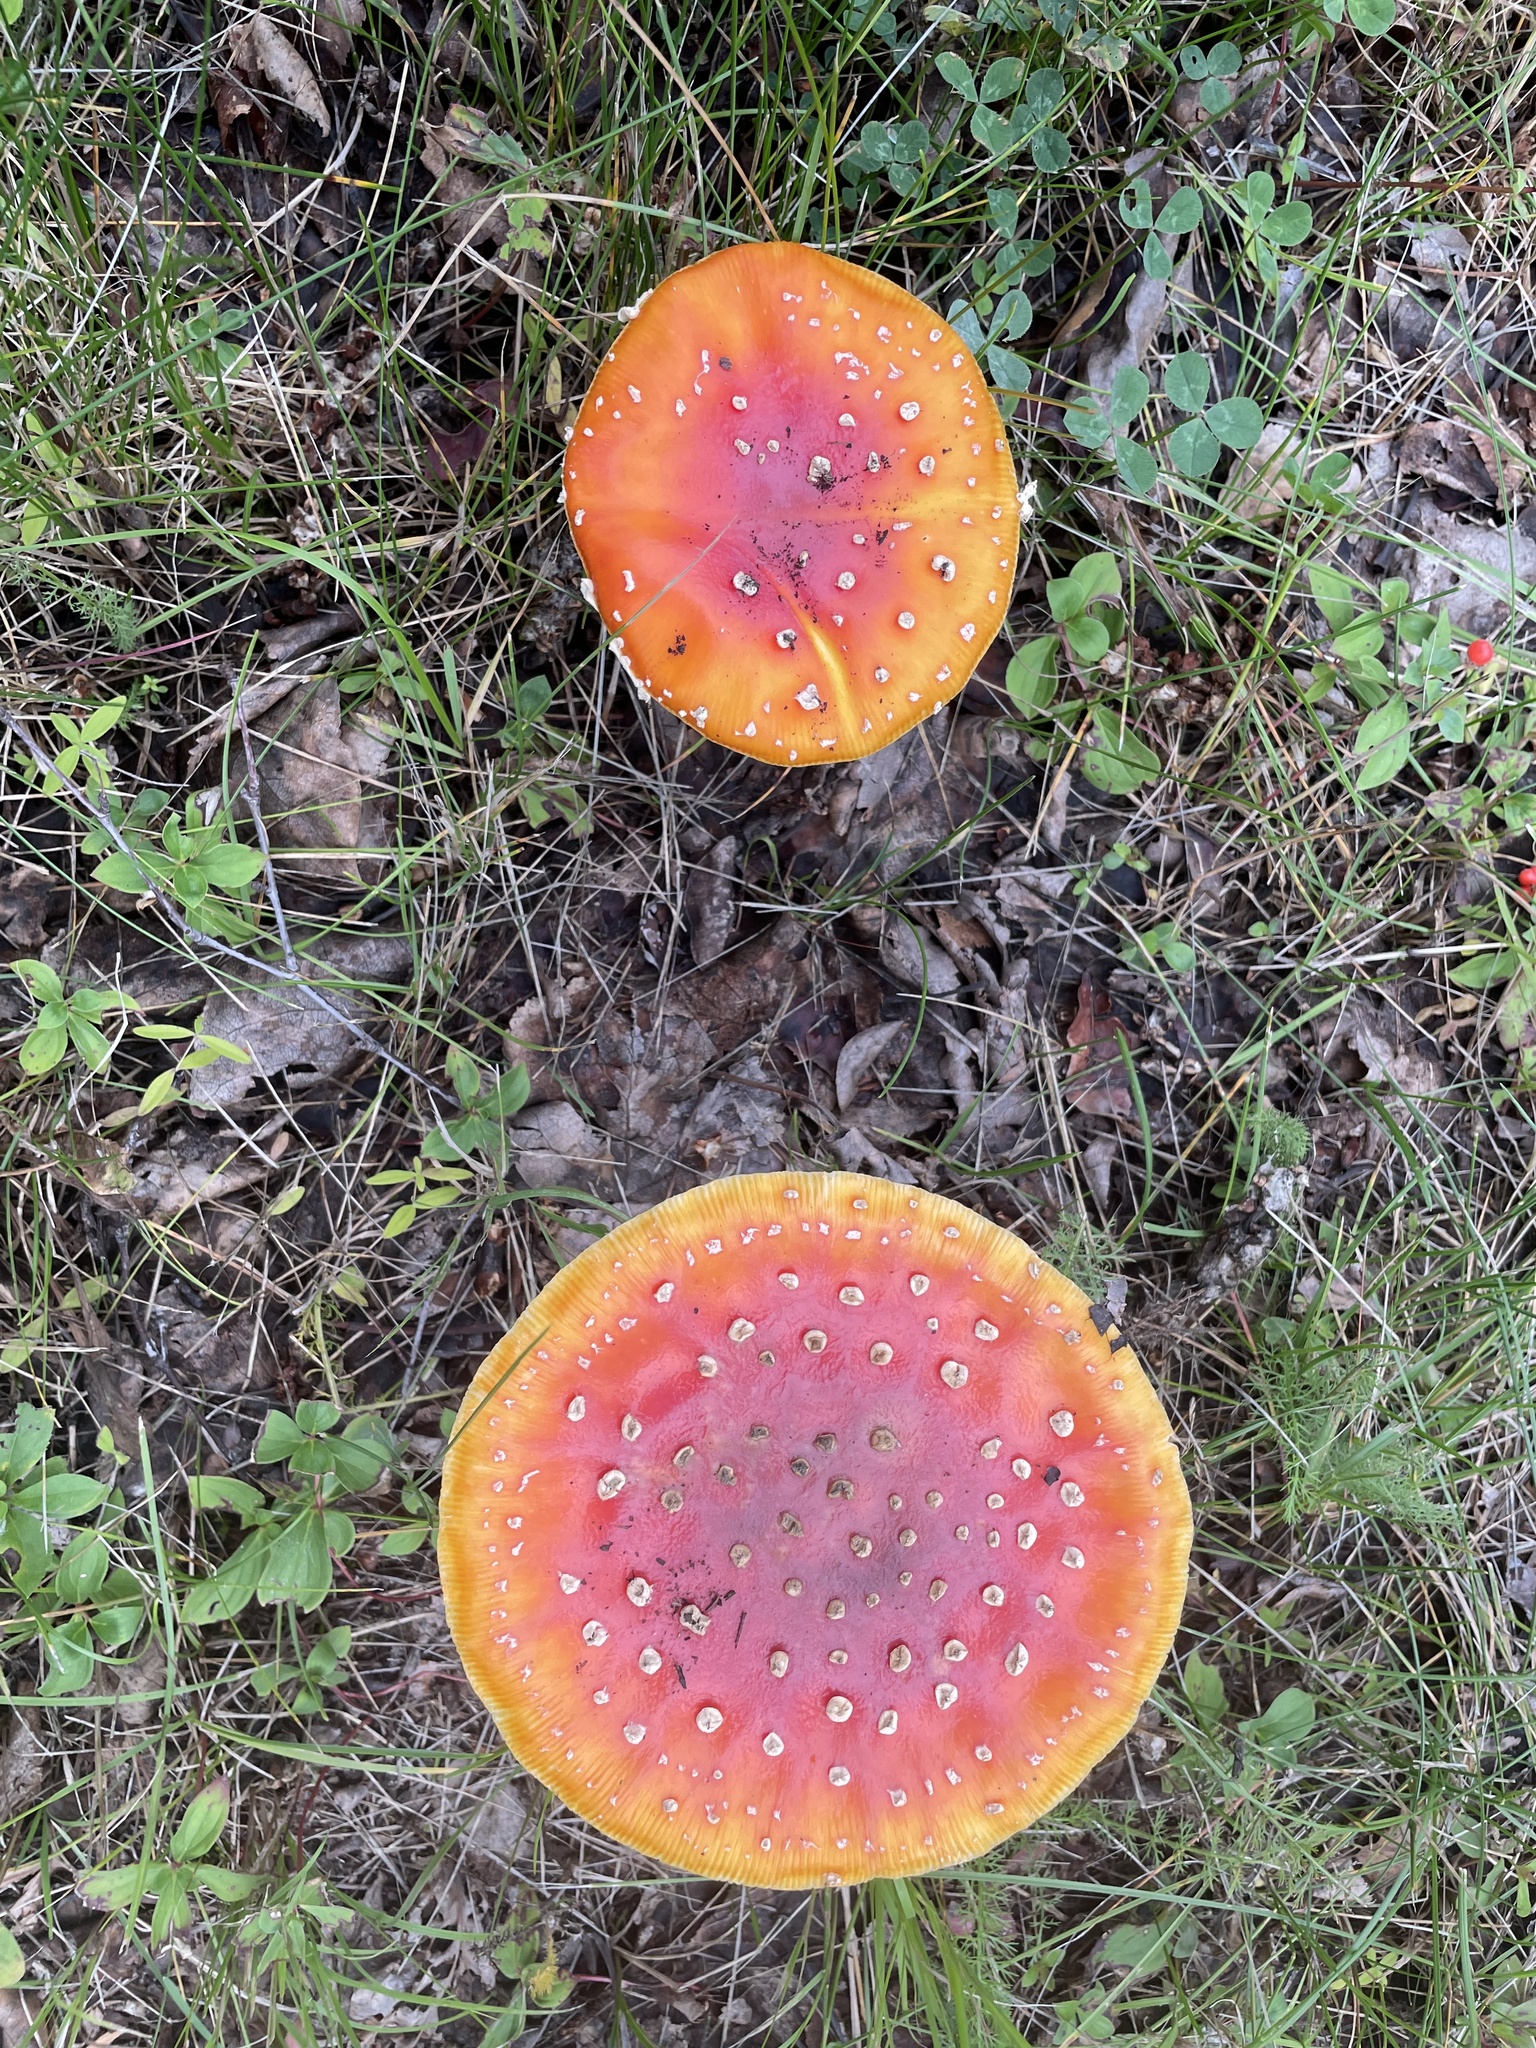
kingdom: Fungi
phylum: Basidiomycota
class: Agaricomycetes
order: Agaricales
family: Amanitaceae
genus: Amanita
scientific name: Amanita muscaria
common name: Fly agaric
